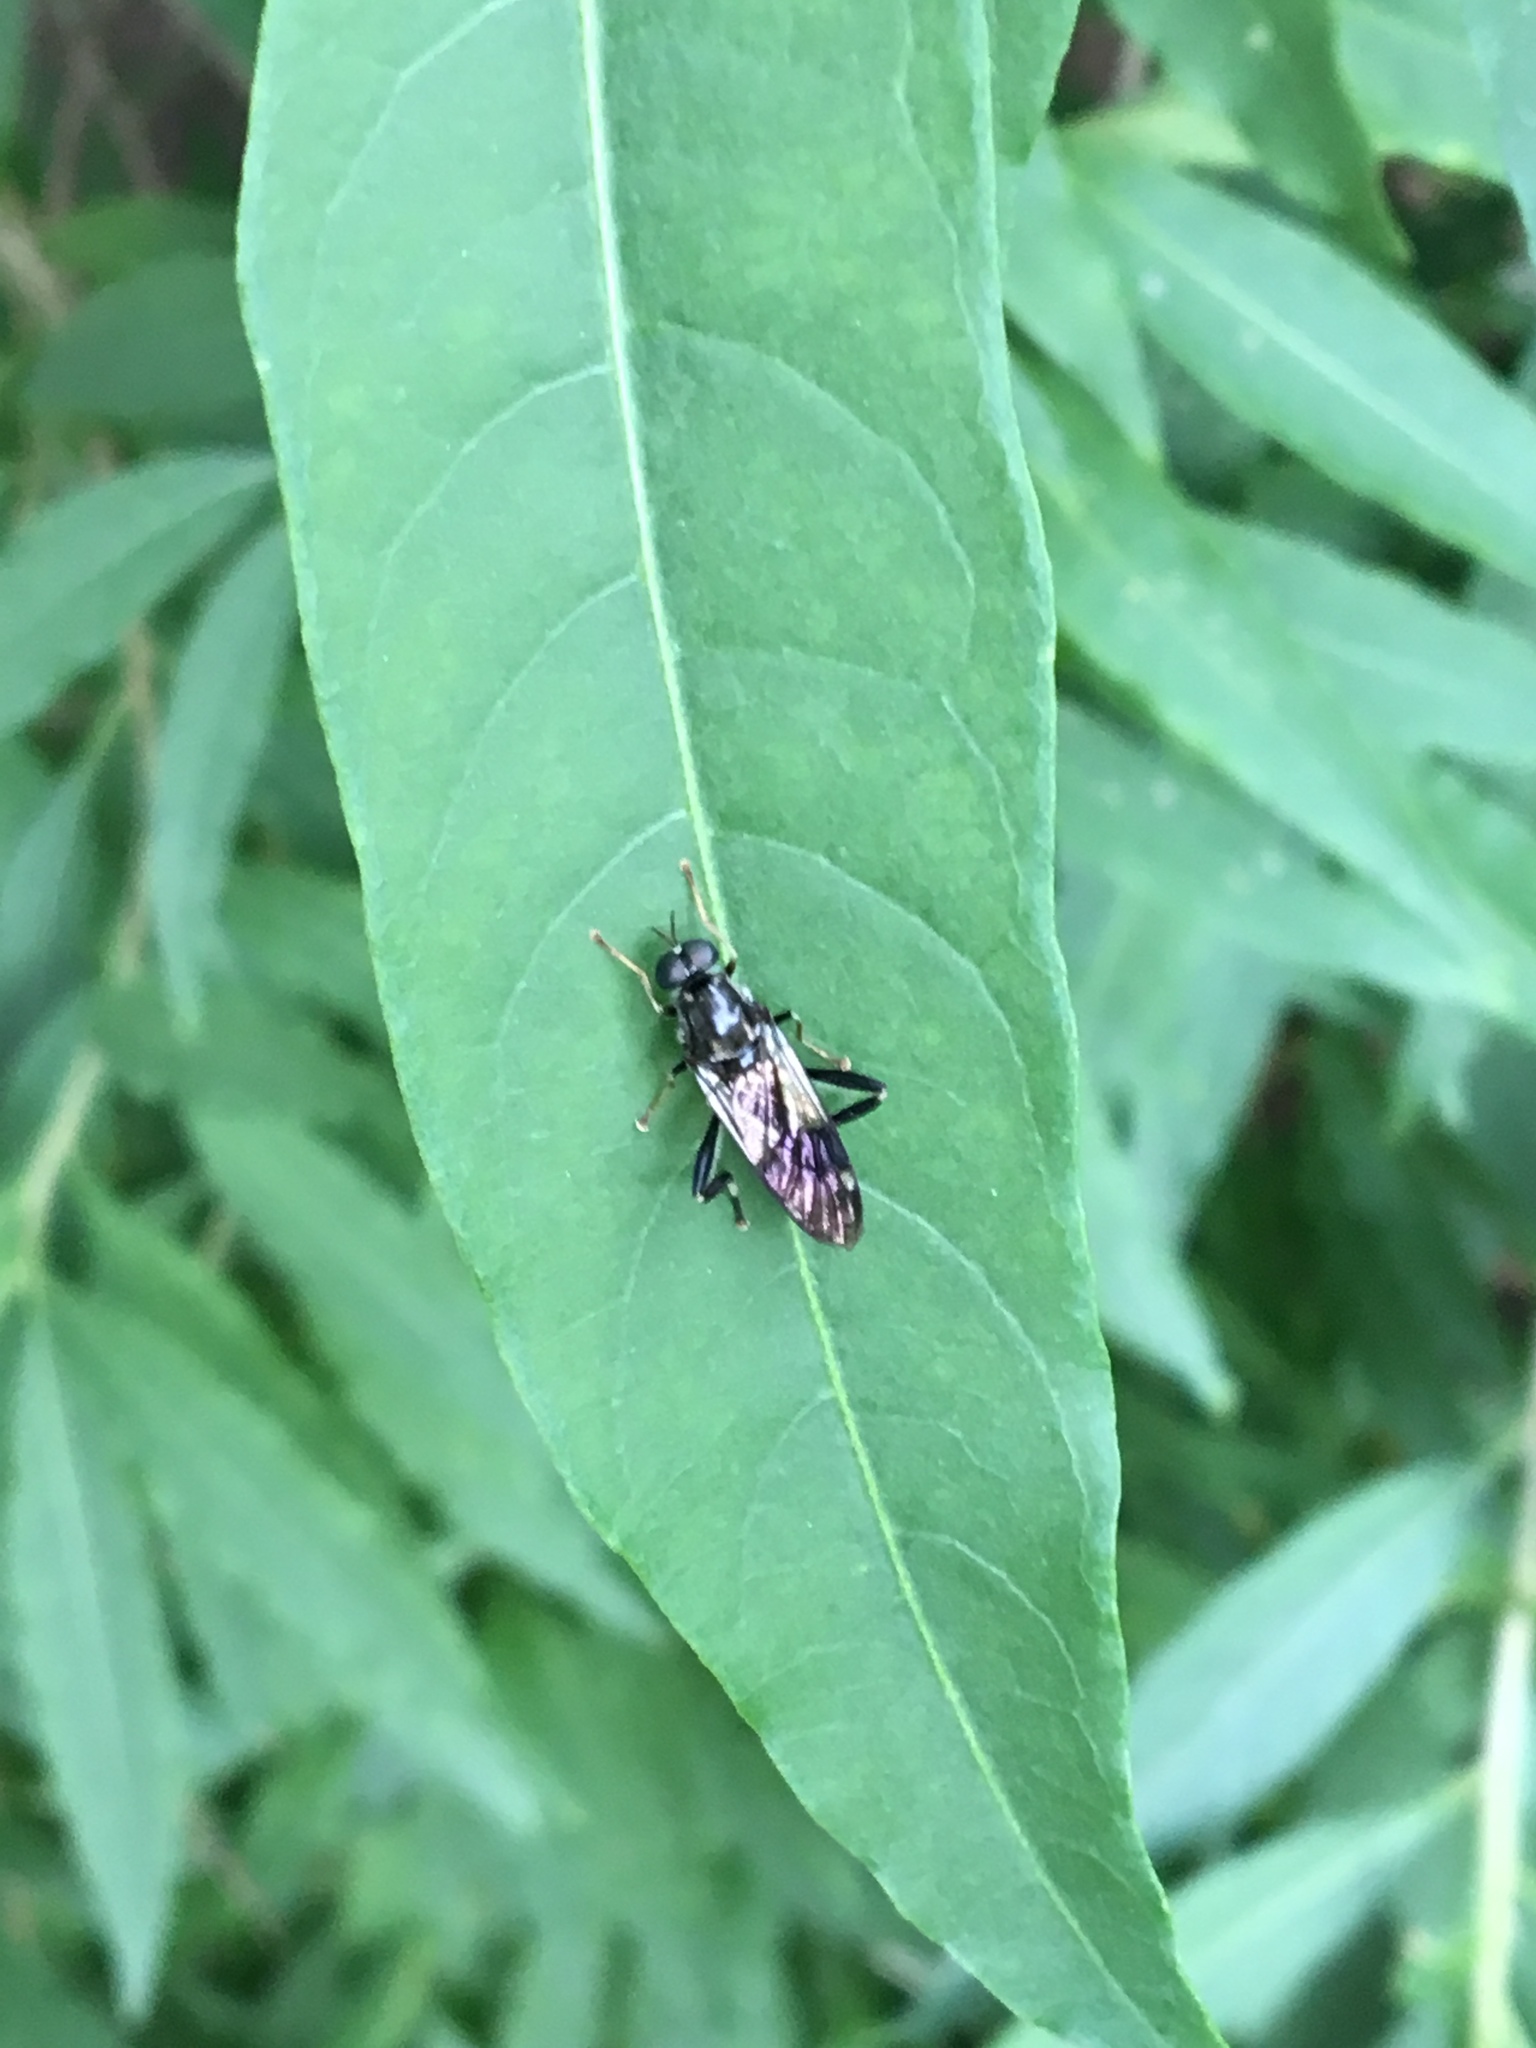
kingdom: Animalia
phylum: Arthropoda
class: Insecta
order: Diptera
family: Stratiomyidae
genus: Exaireta
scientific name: Exaireta spinigera
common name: Blue soldier fly
